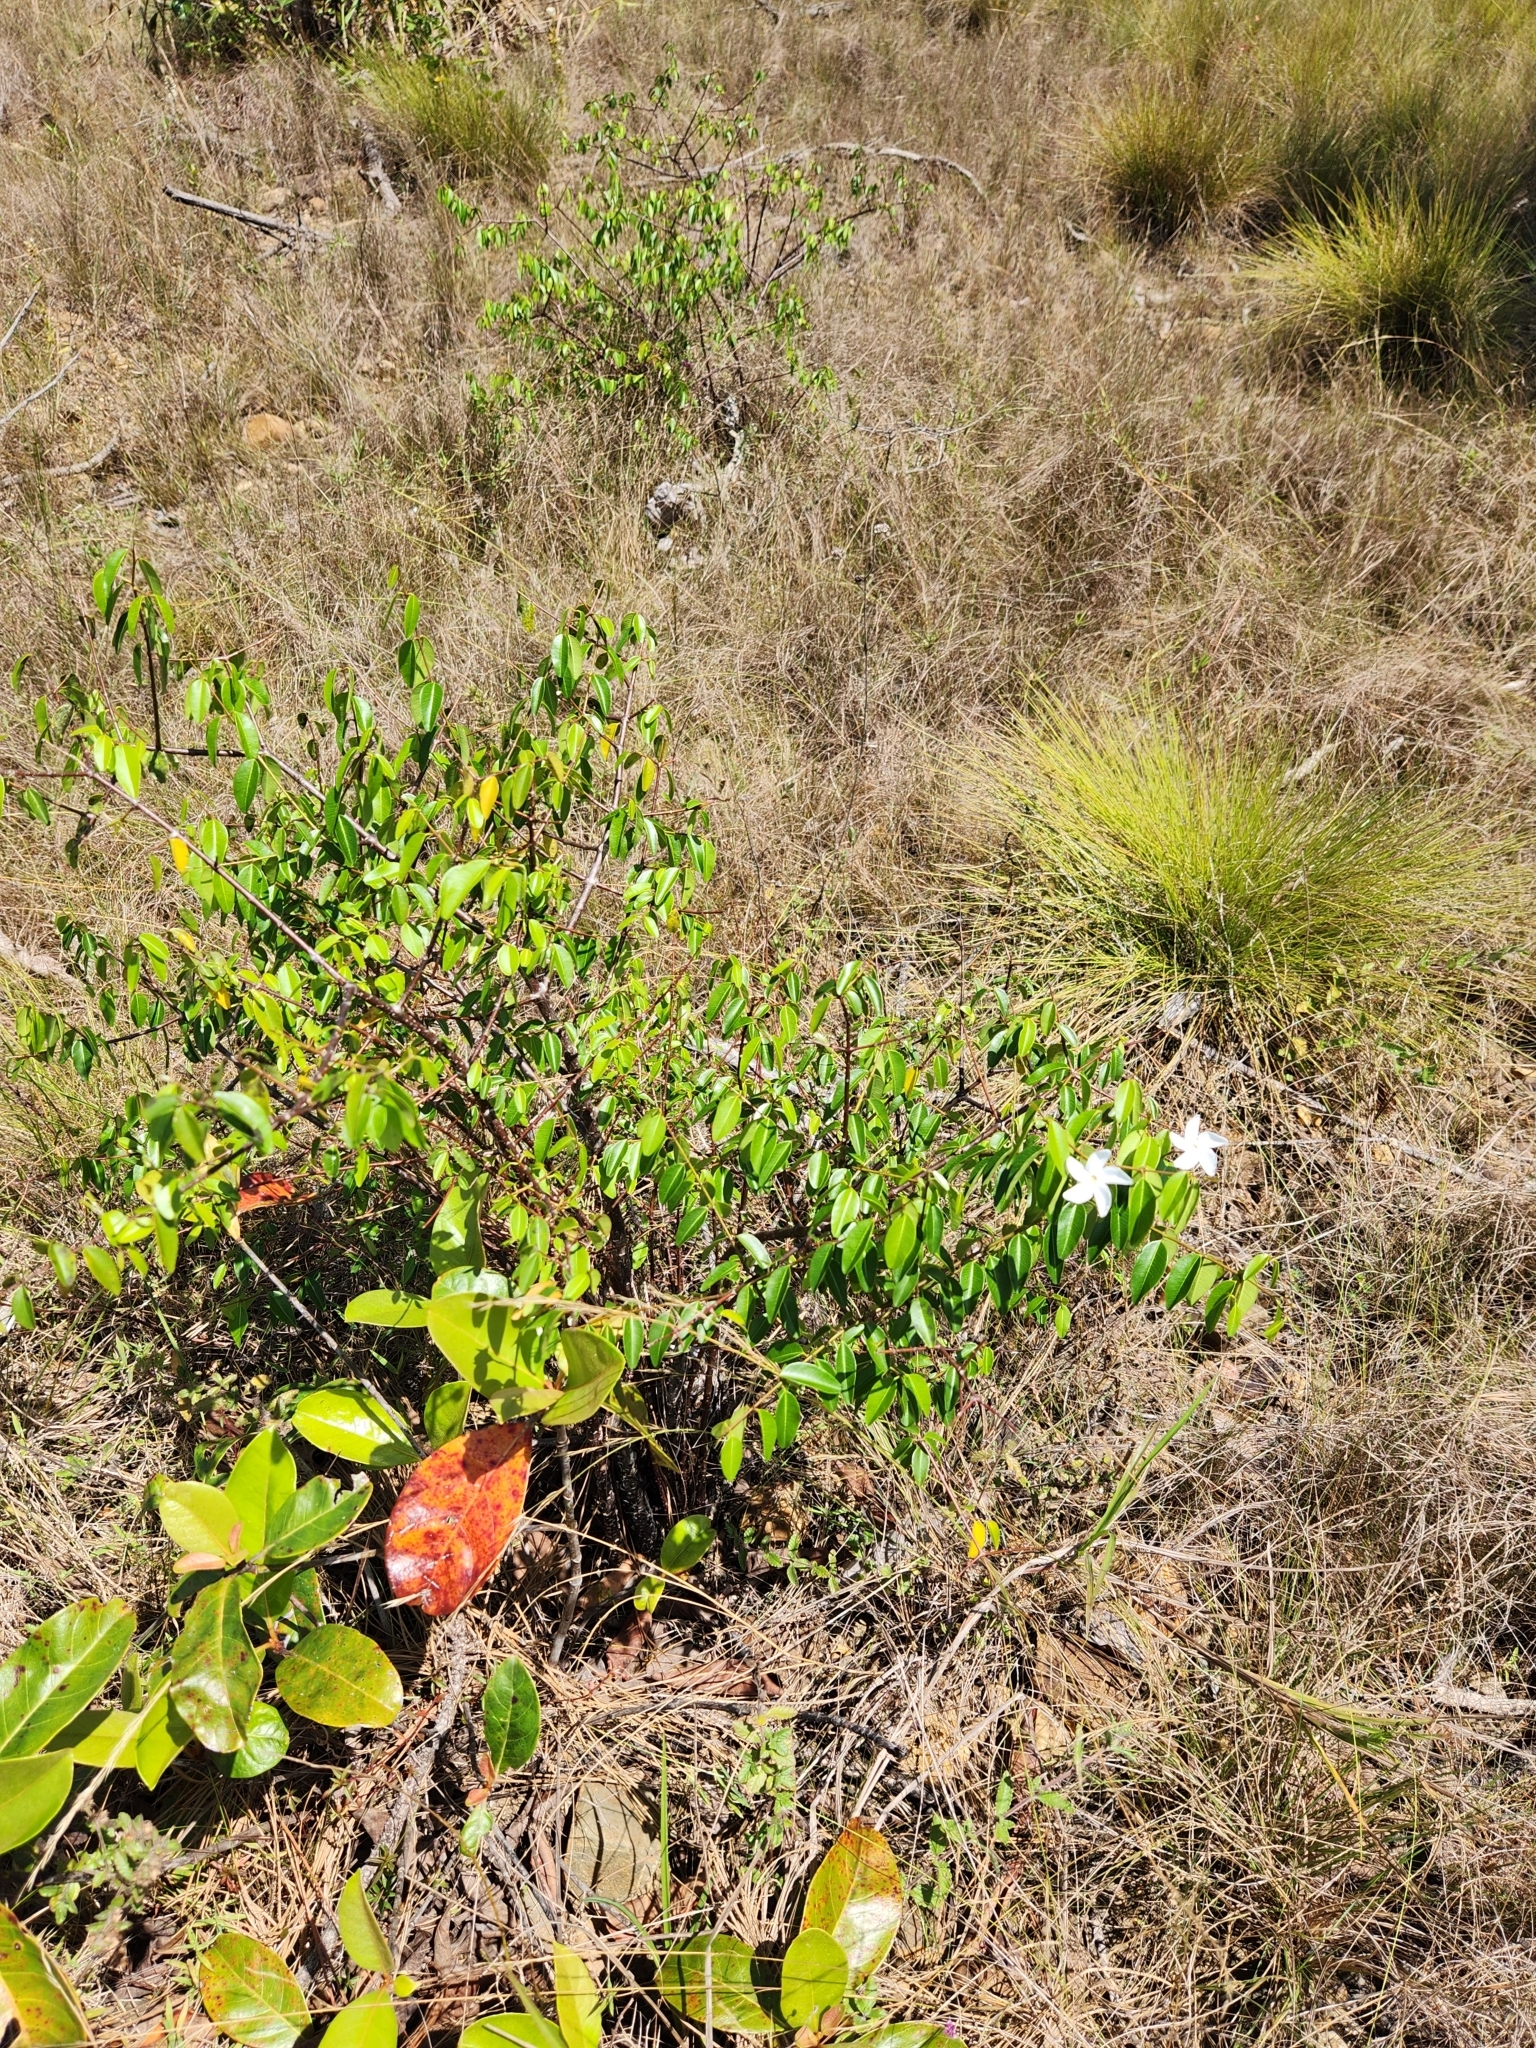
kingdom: Plantae
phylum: Tracheophyta
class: Magnoliopsida
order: Gentianales
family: Apocynaceae
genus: Rhabdadenia
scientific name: Rhabdadenia biflora
